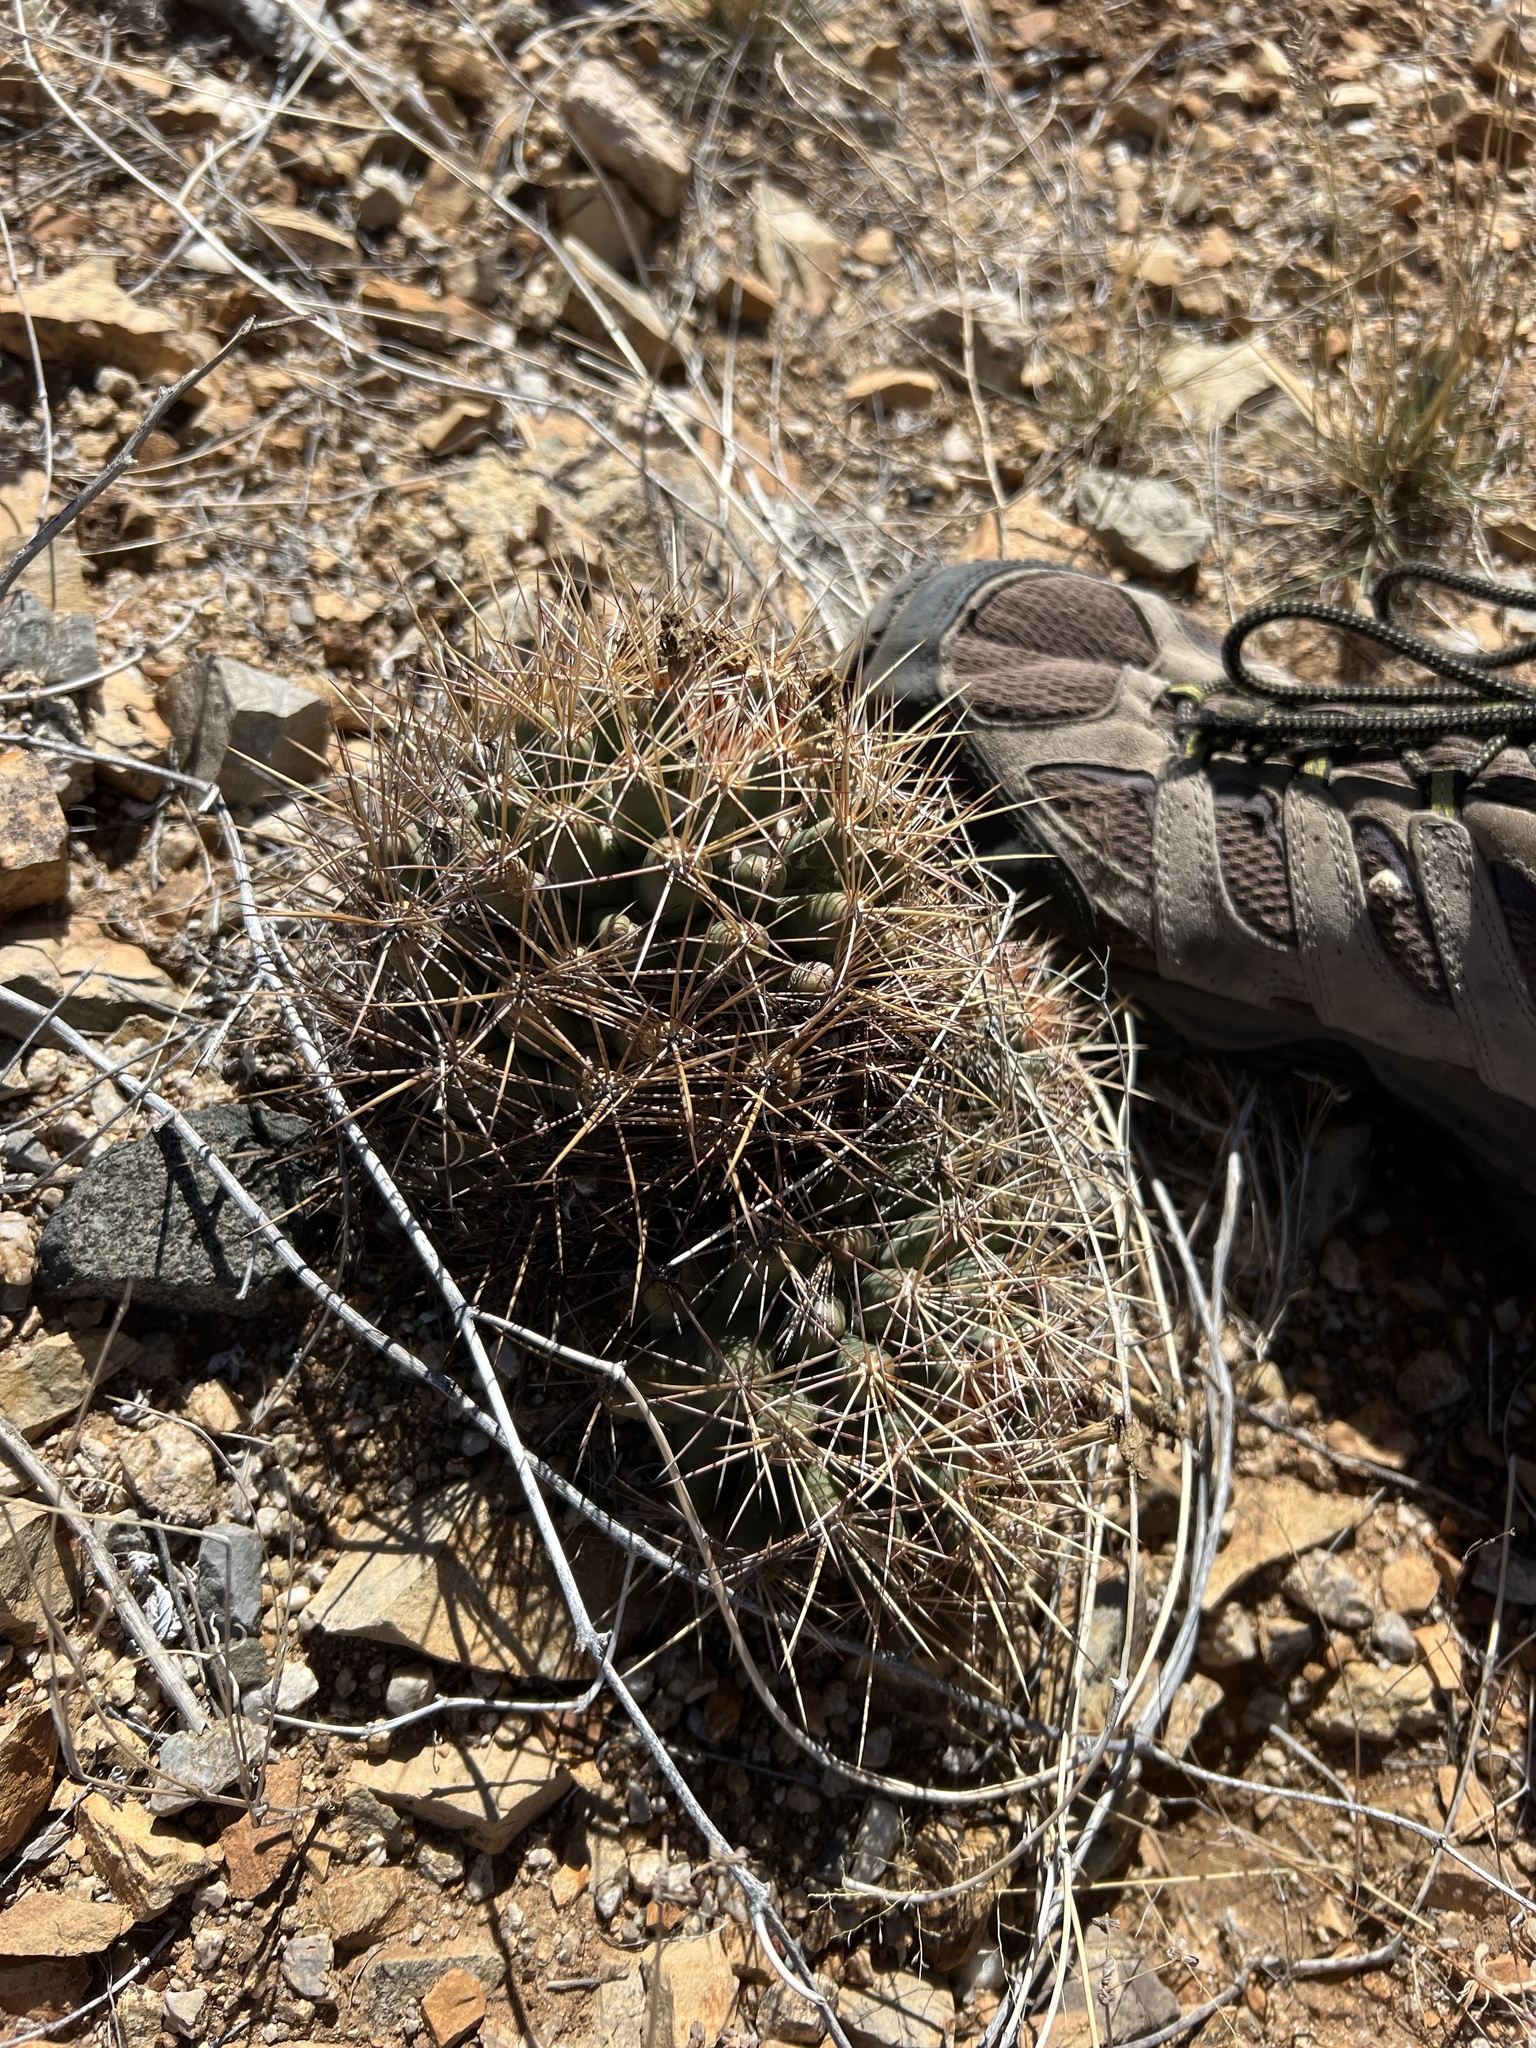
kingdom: Plantae
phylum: Tracheophyta
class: Magnoliopsida
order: Caryophyllales
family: Cactaceae
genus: Coryphantha
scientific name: Coryphantha robustispina
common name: Pima pineapple cactus
